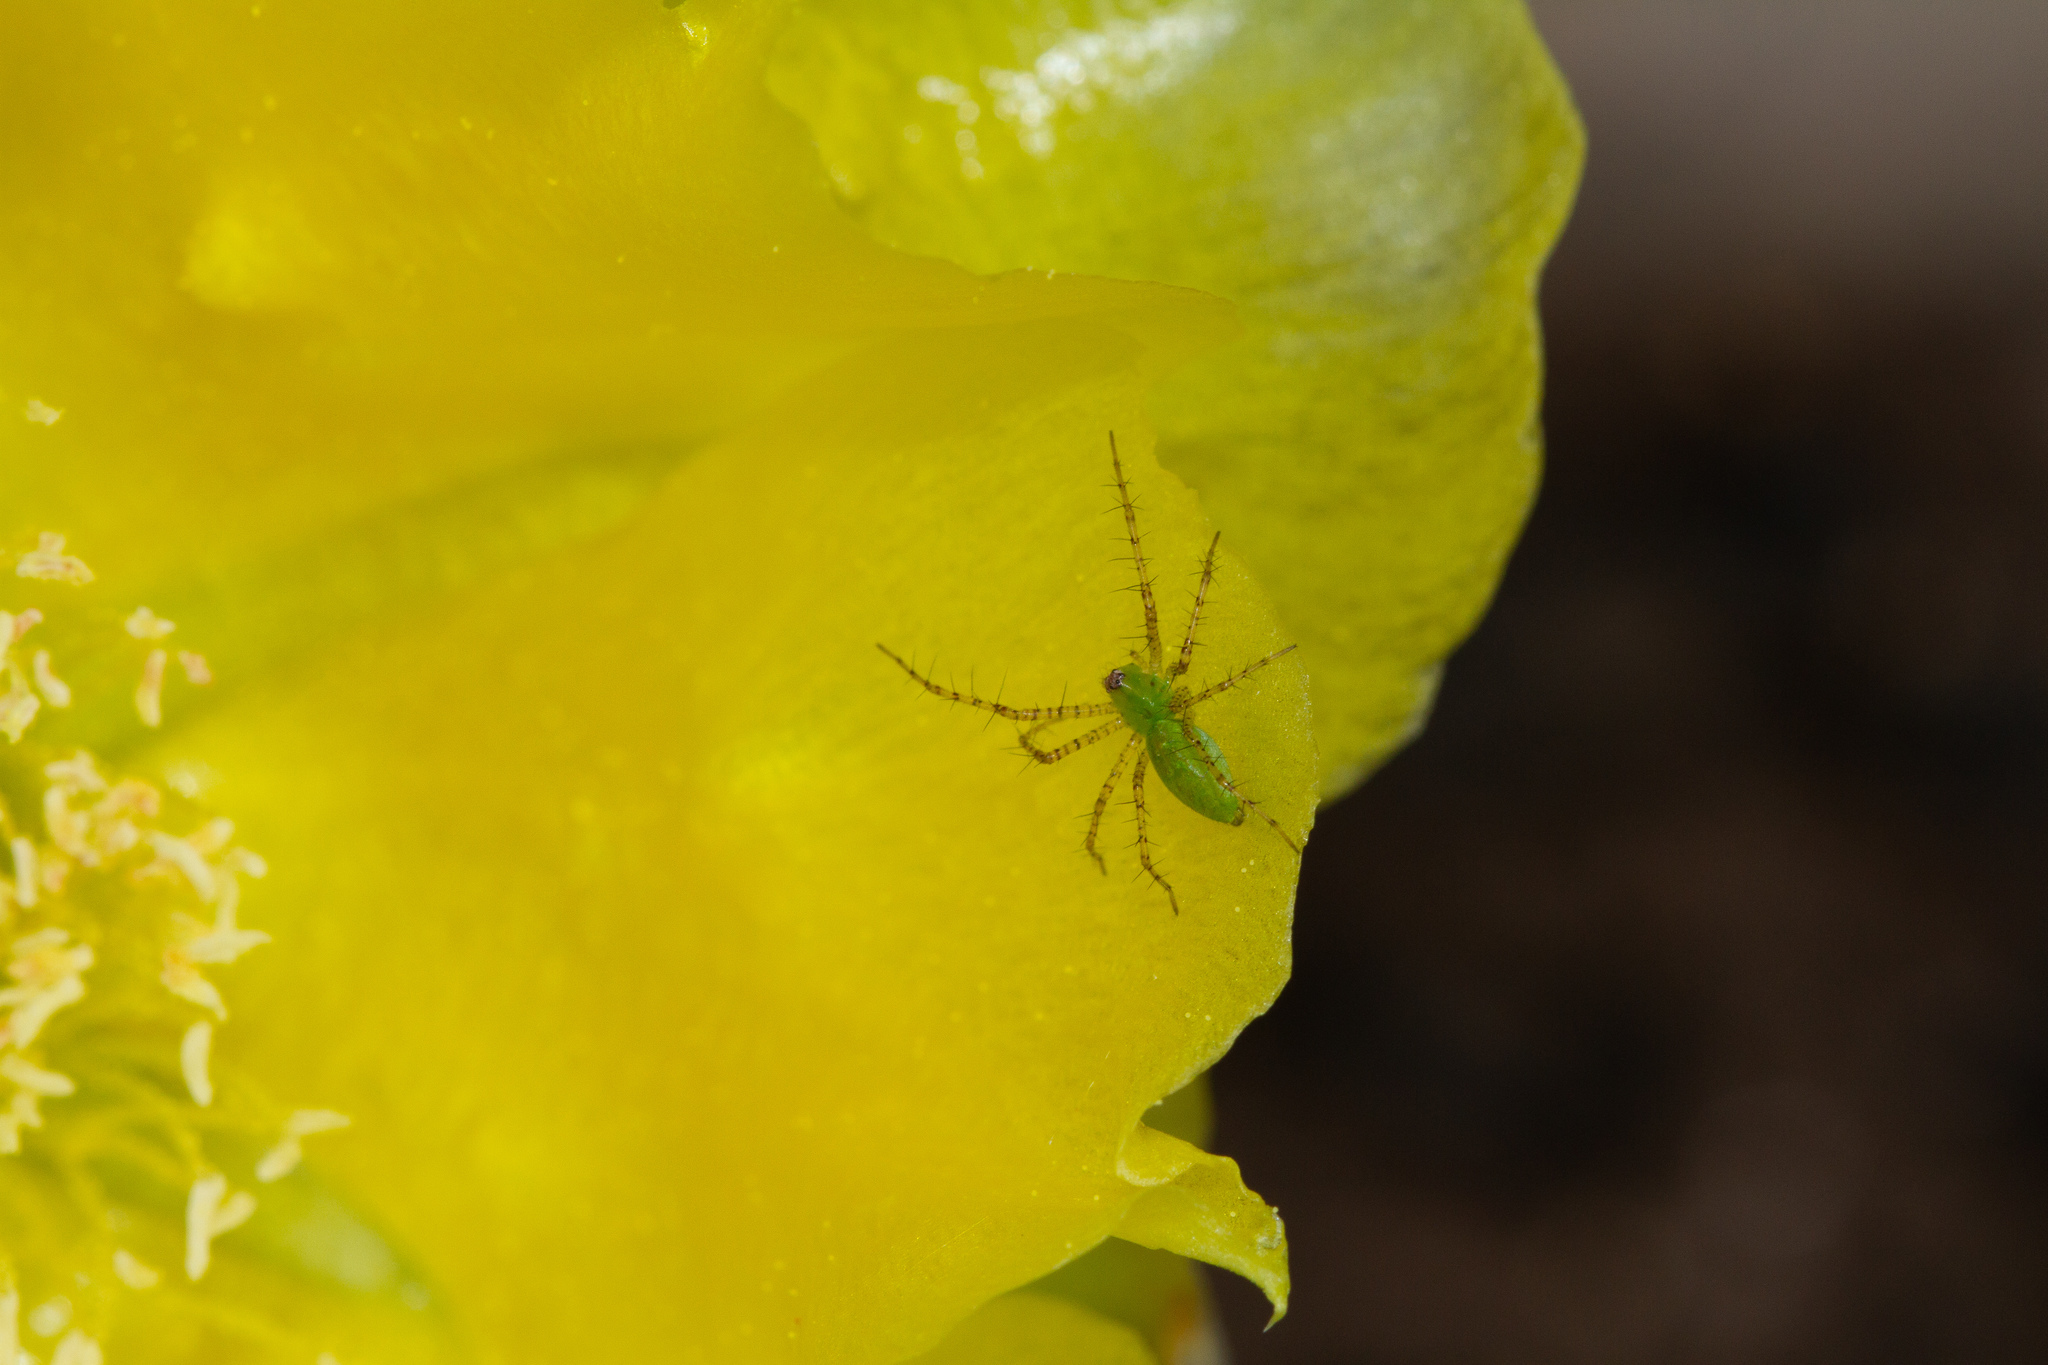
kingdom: Animalia
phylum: Arthropoda
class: Arachnida
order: Araneae
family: Oxyopidae
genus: Peucetia
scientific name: Peucetia viridans
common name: Lynx spiders
